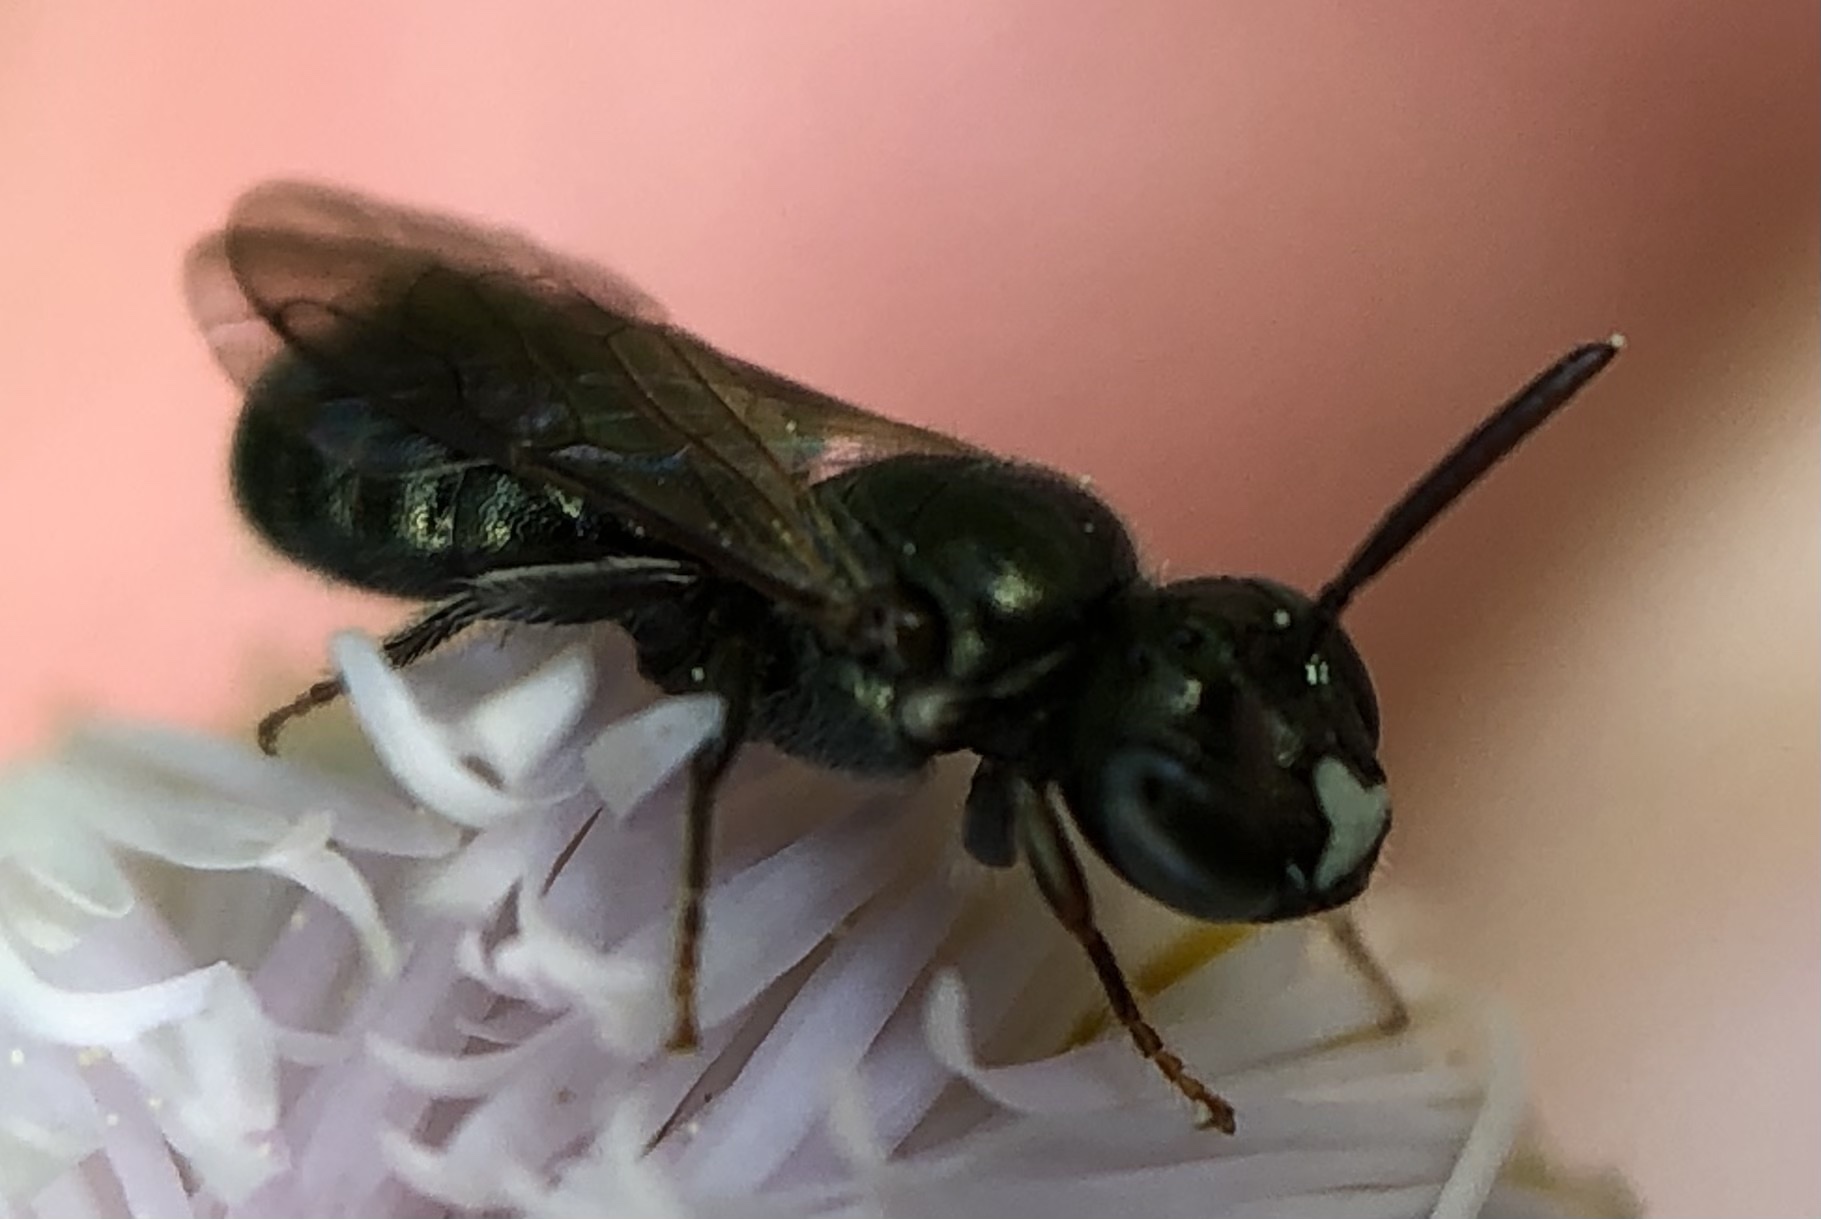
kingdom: Animalia
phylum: Arthropoda
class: Insecta
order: Hymenoptera
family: Apidae
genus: Ceratina
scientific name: Ceratina strenua
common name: Nimble carpenter bee
